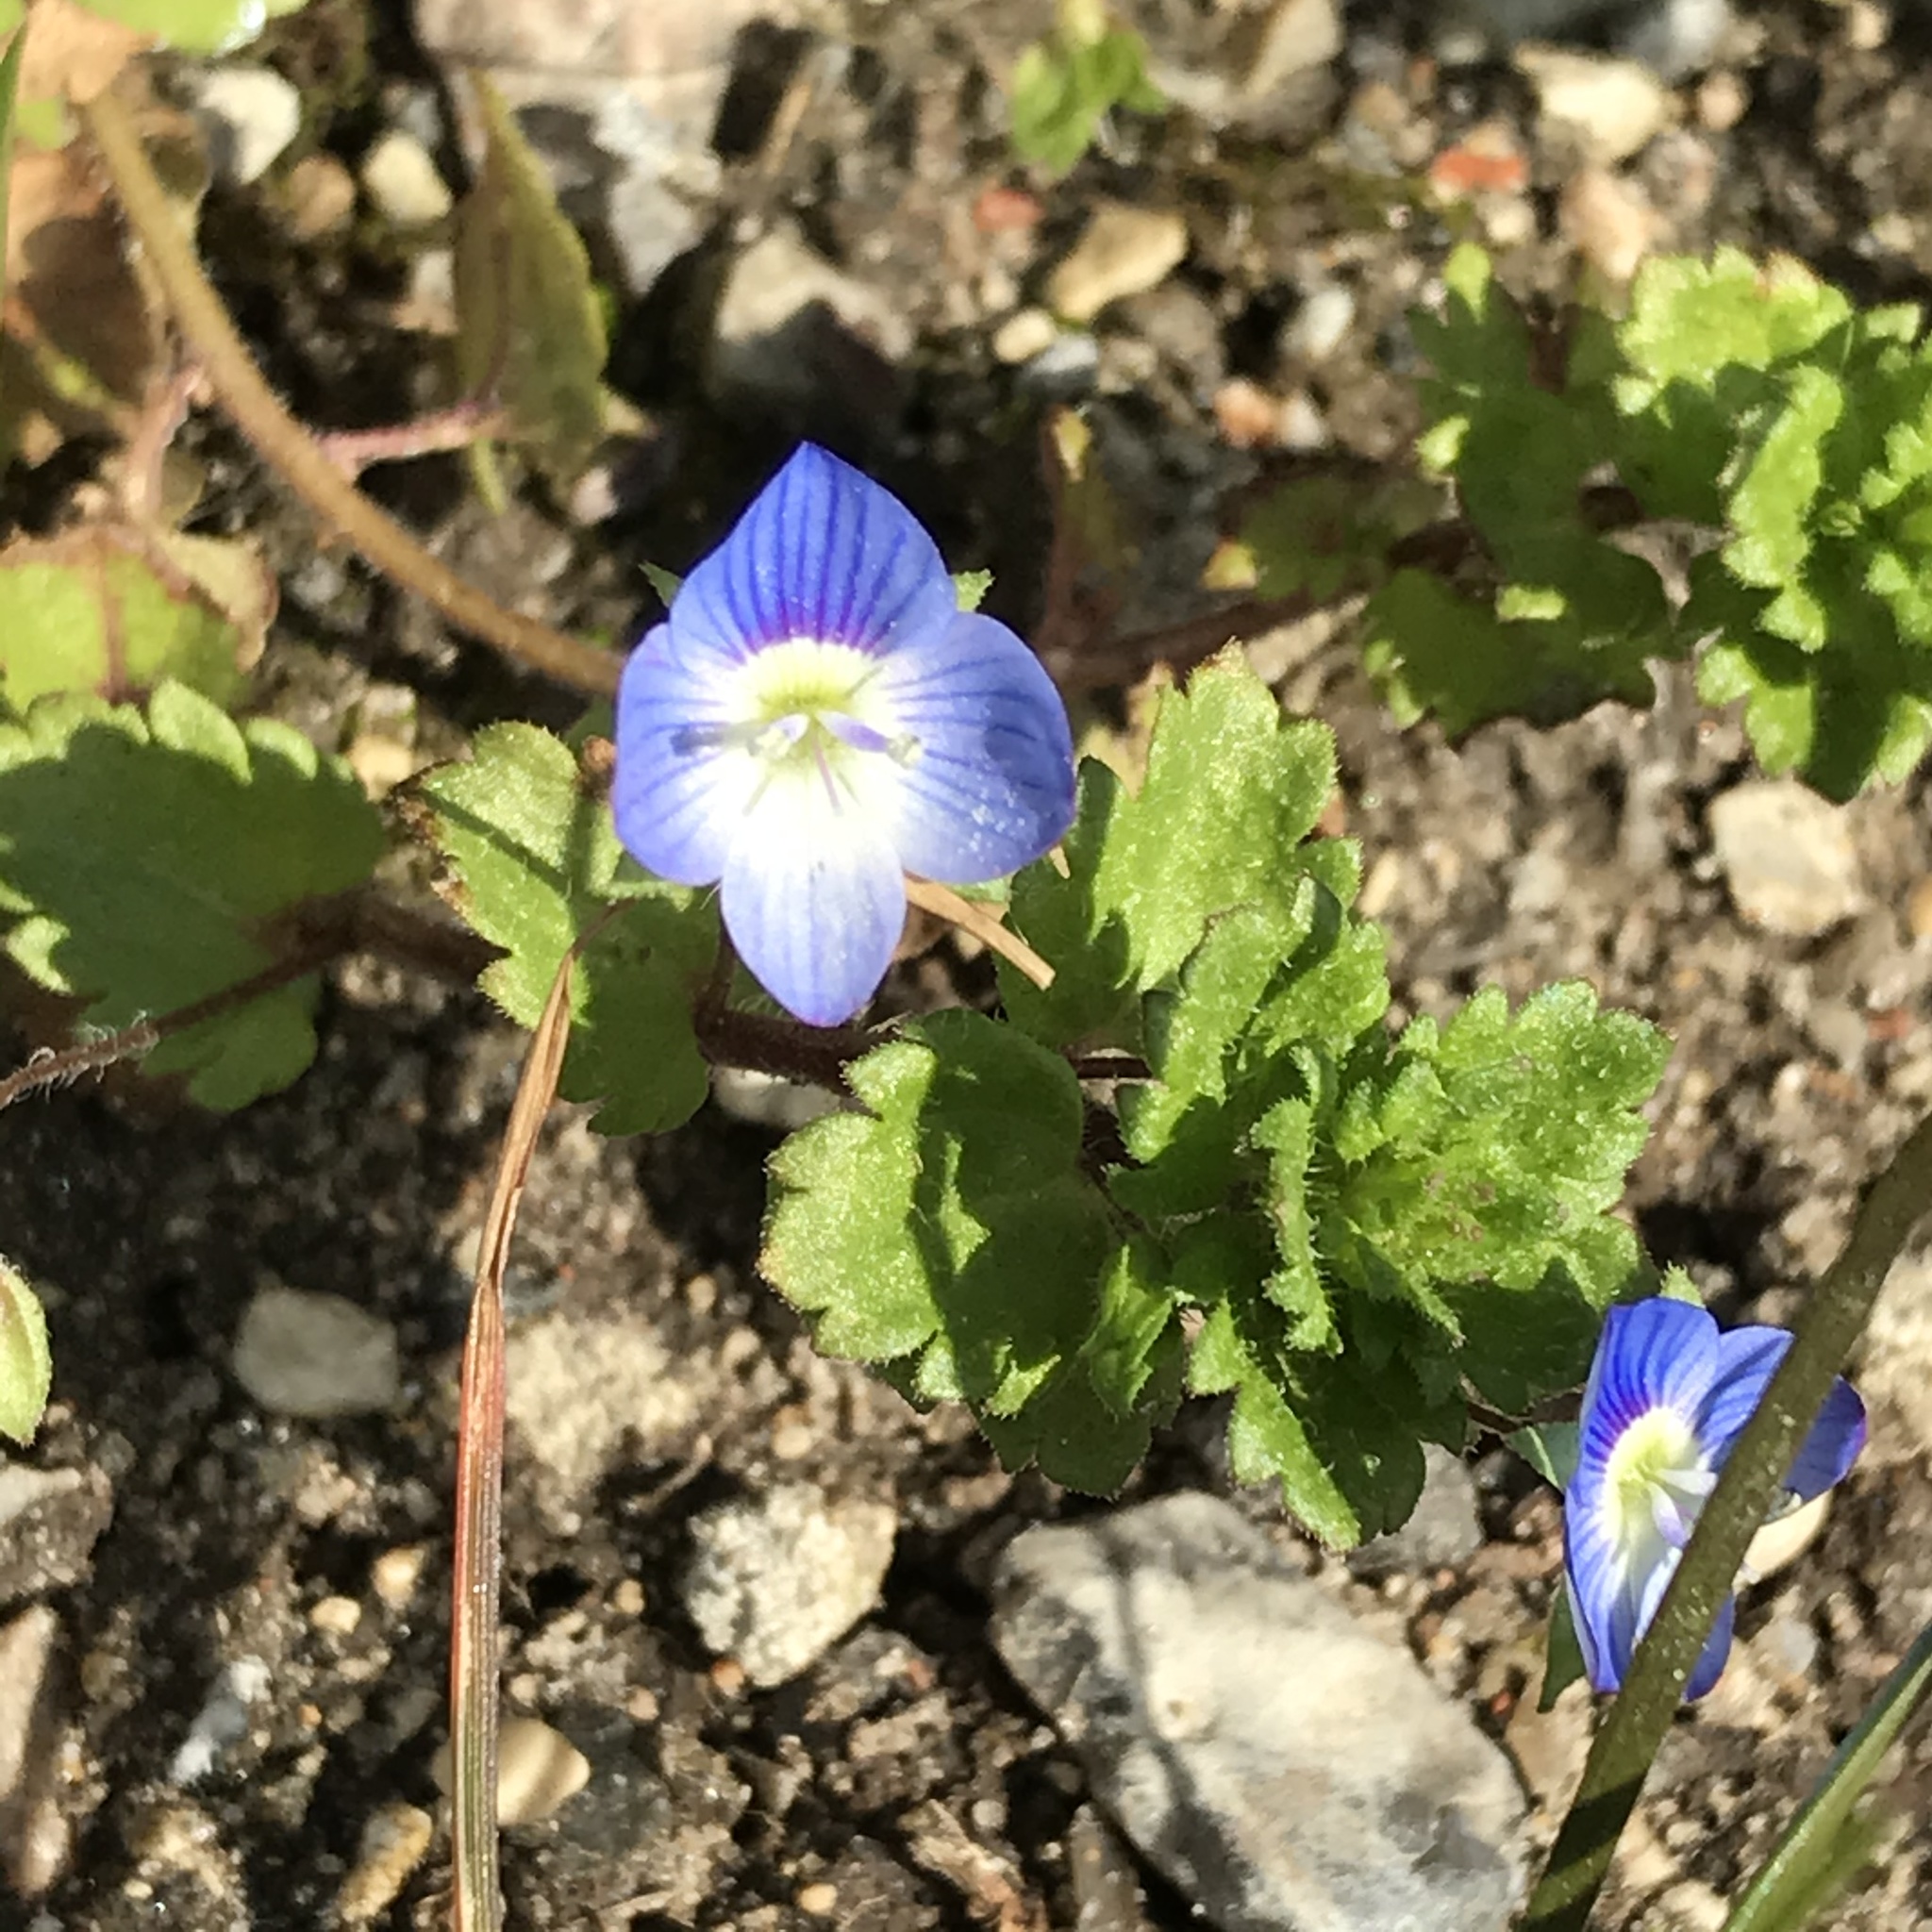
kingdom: Plantae
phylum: Tracheophyta
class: Magnoliopsida
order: Lamiales
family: Plantaginaceae
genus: Veronica
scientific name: Veronica persica
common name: Common field-speedwell
